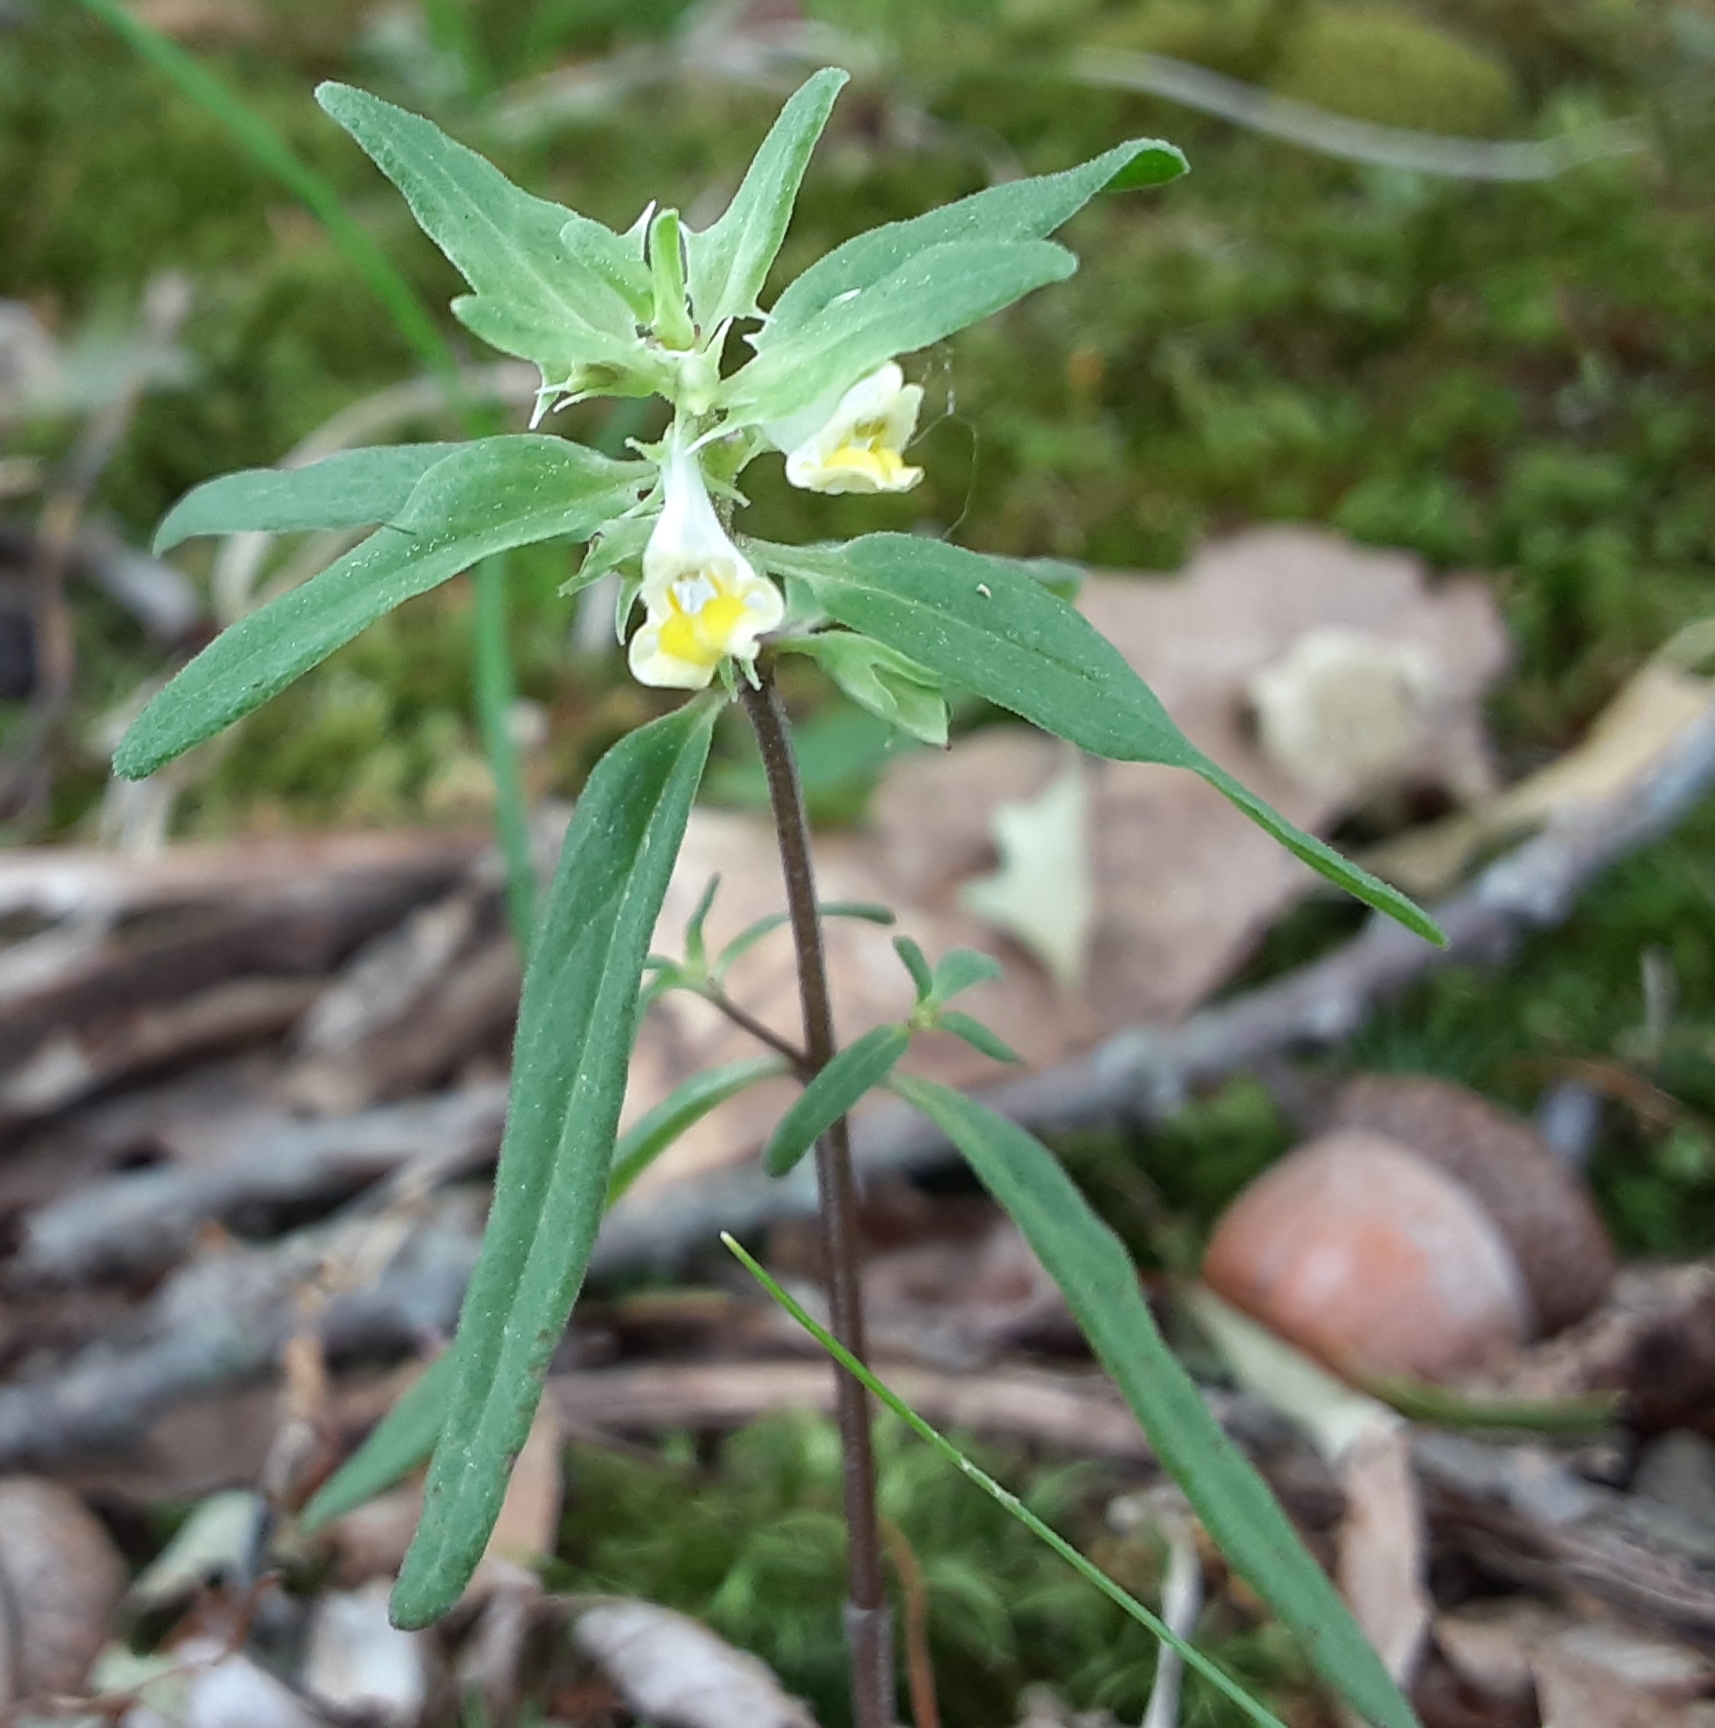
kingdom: Plantae
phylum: Tracheophyta
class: Magnoliopsida
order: Lamiales
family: Orobanchaceae
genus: Melampyrum
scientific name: Melampyrum lineare
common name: American cow-wheat
